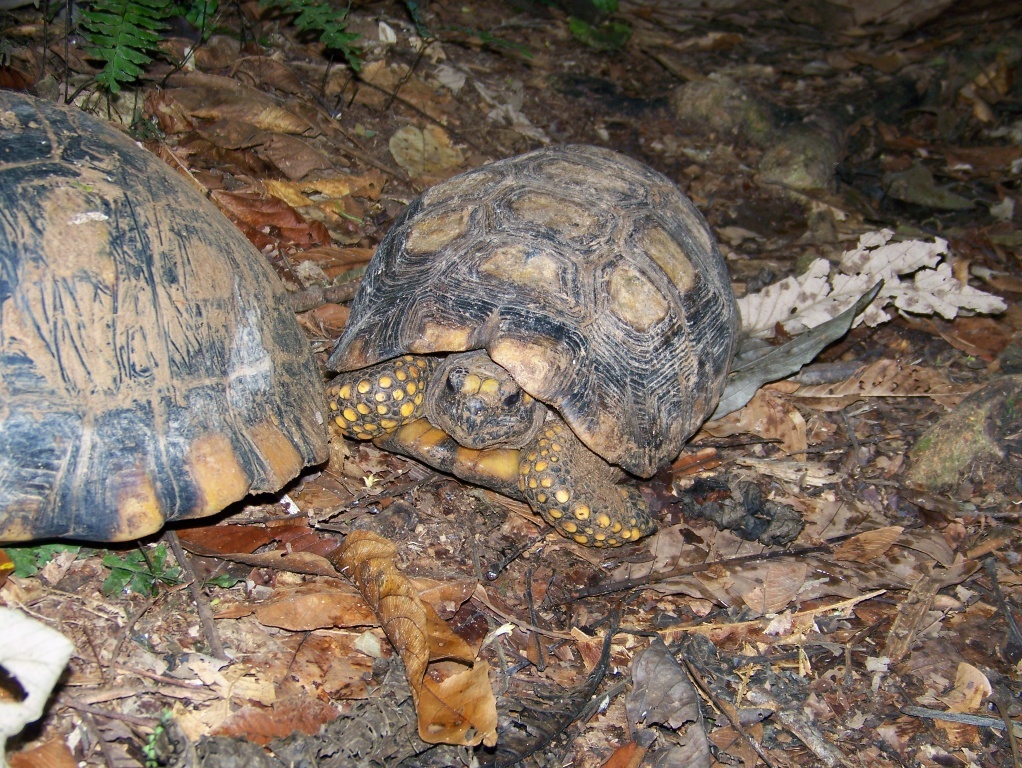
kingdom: Animalia
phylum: Chordata
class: Testudines
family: Testudinidae
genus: Chelonoidis
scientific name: Chelonoidis denticulatus
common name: Yellow-footed tortoise
